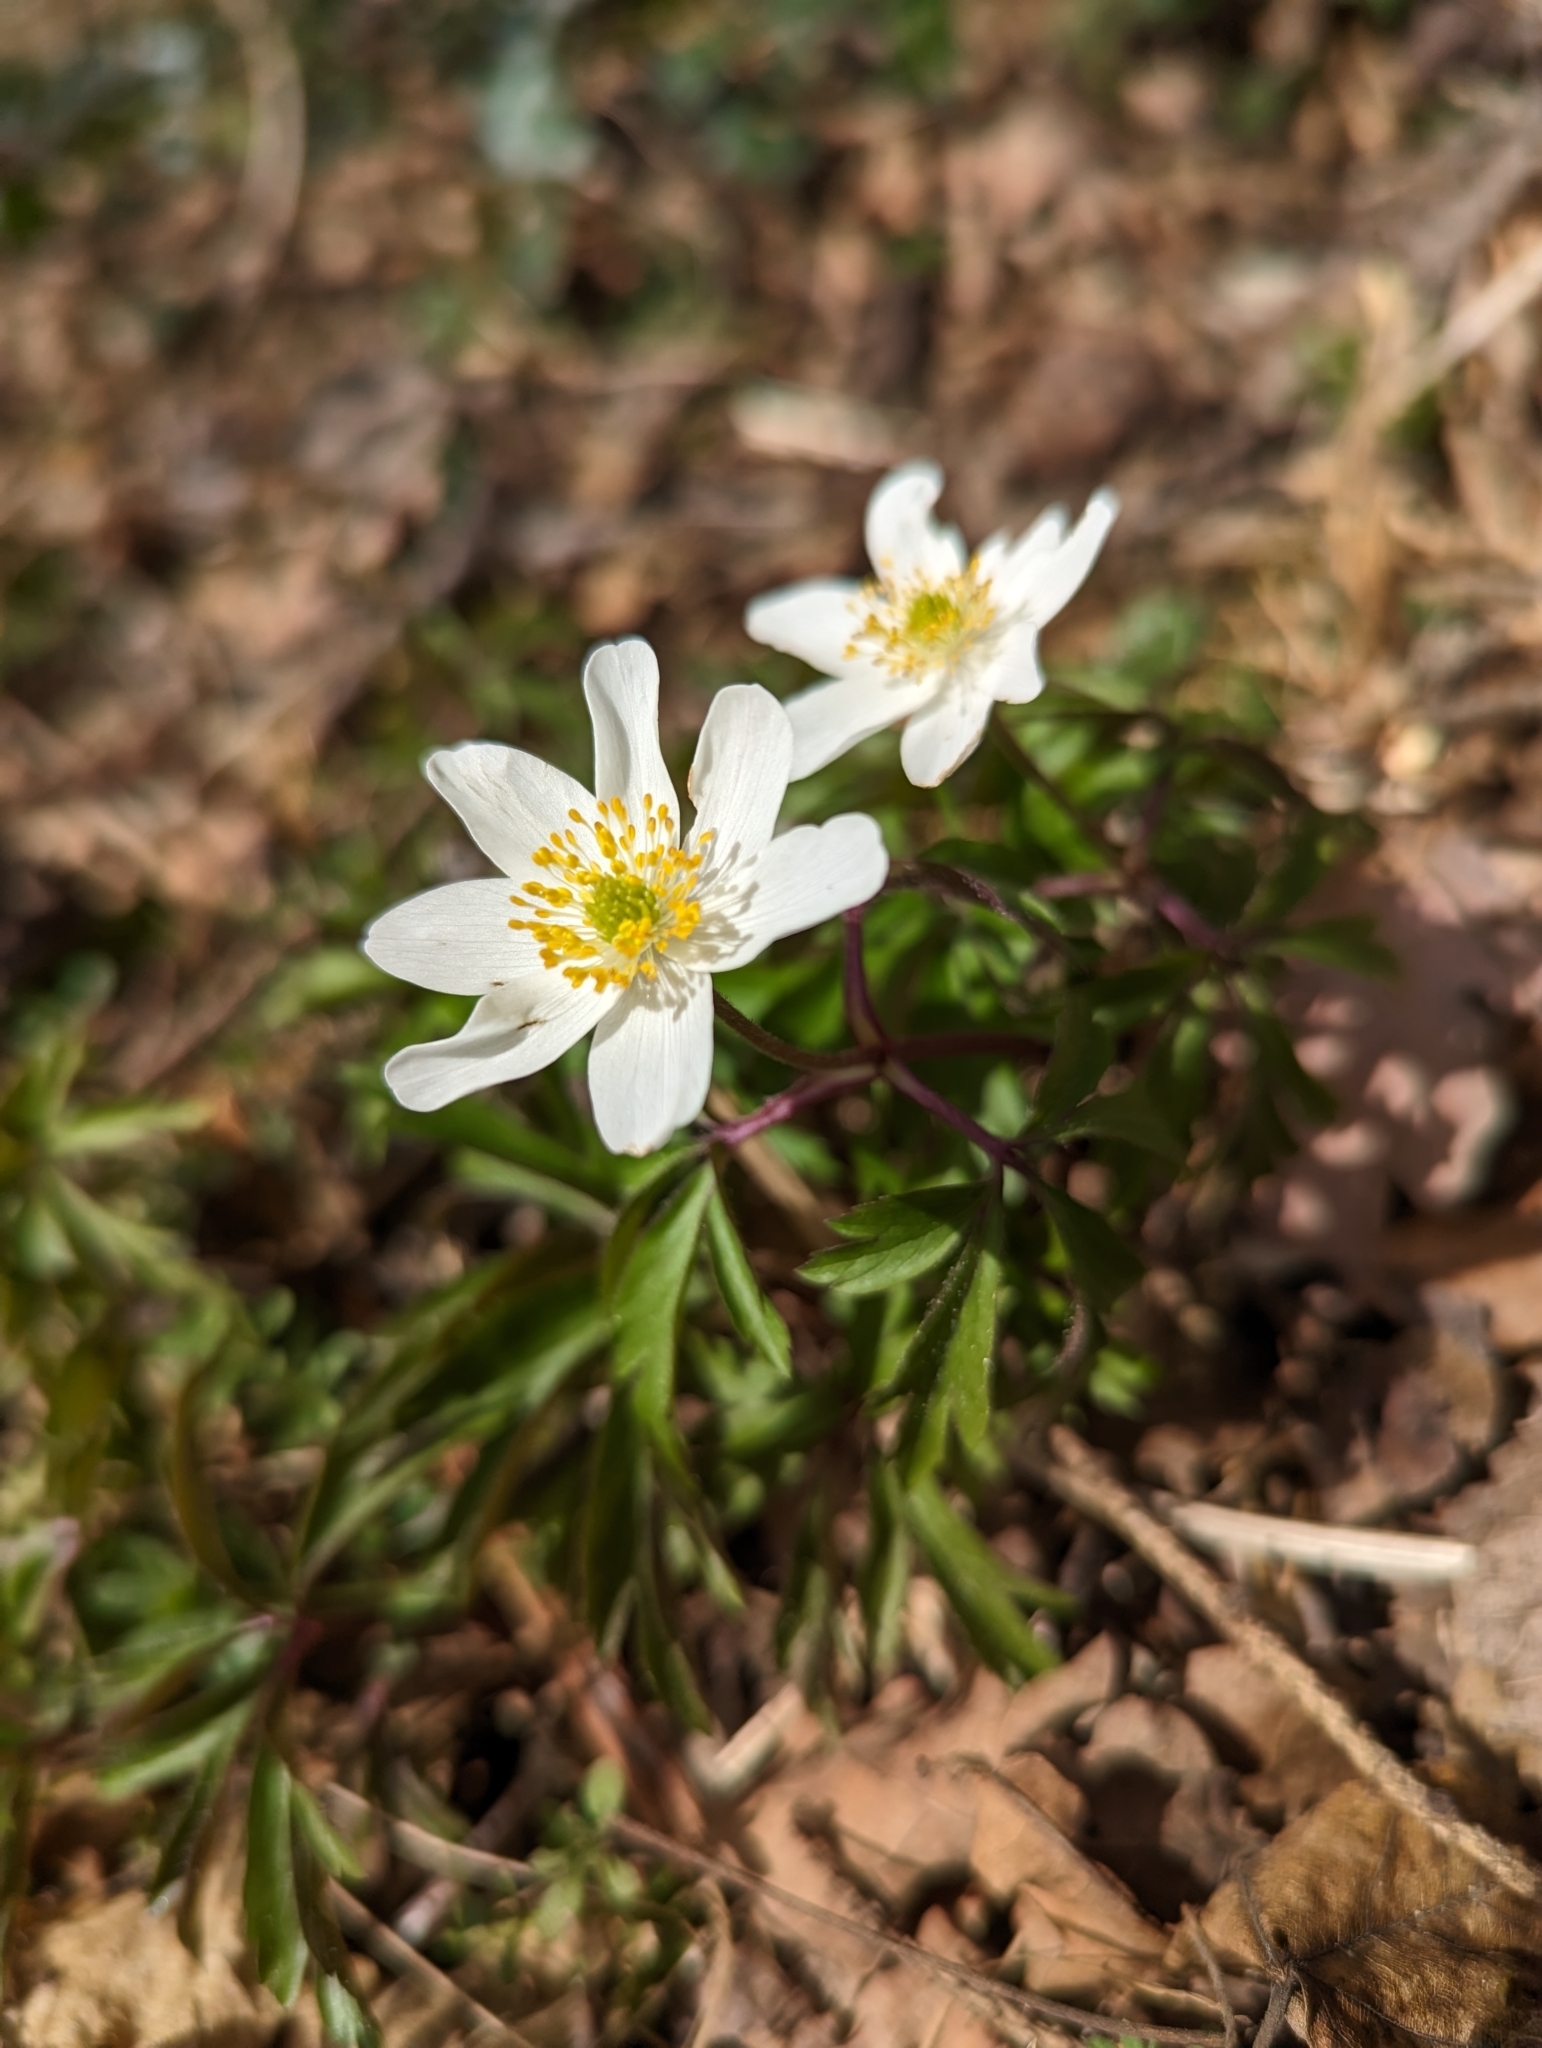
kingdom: Plantae
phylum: Tracheophyta
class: Magnoliopsida
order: Ranunculales
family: Ranunculaceae
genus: Anemone
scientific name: Anemone nemorosa
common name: Wood anemone
